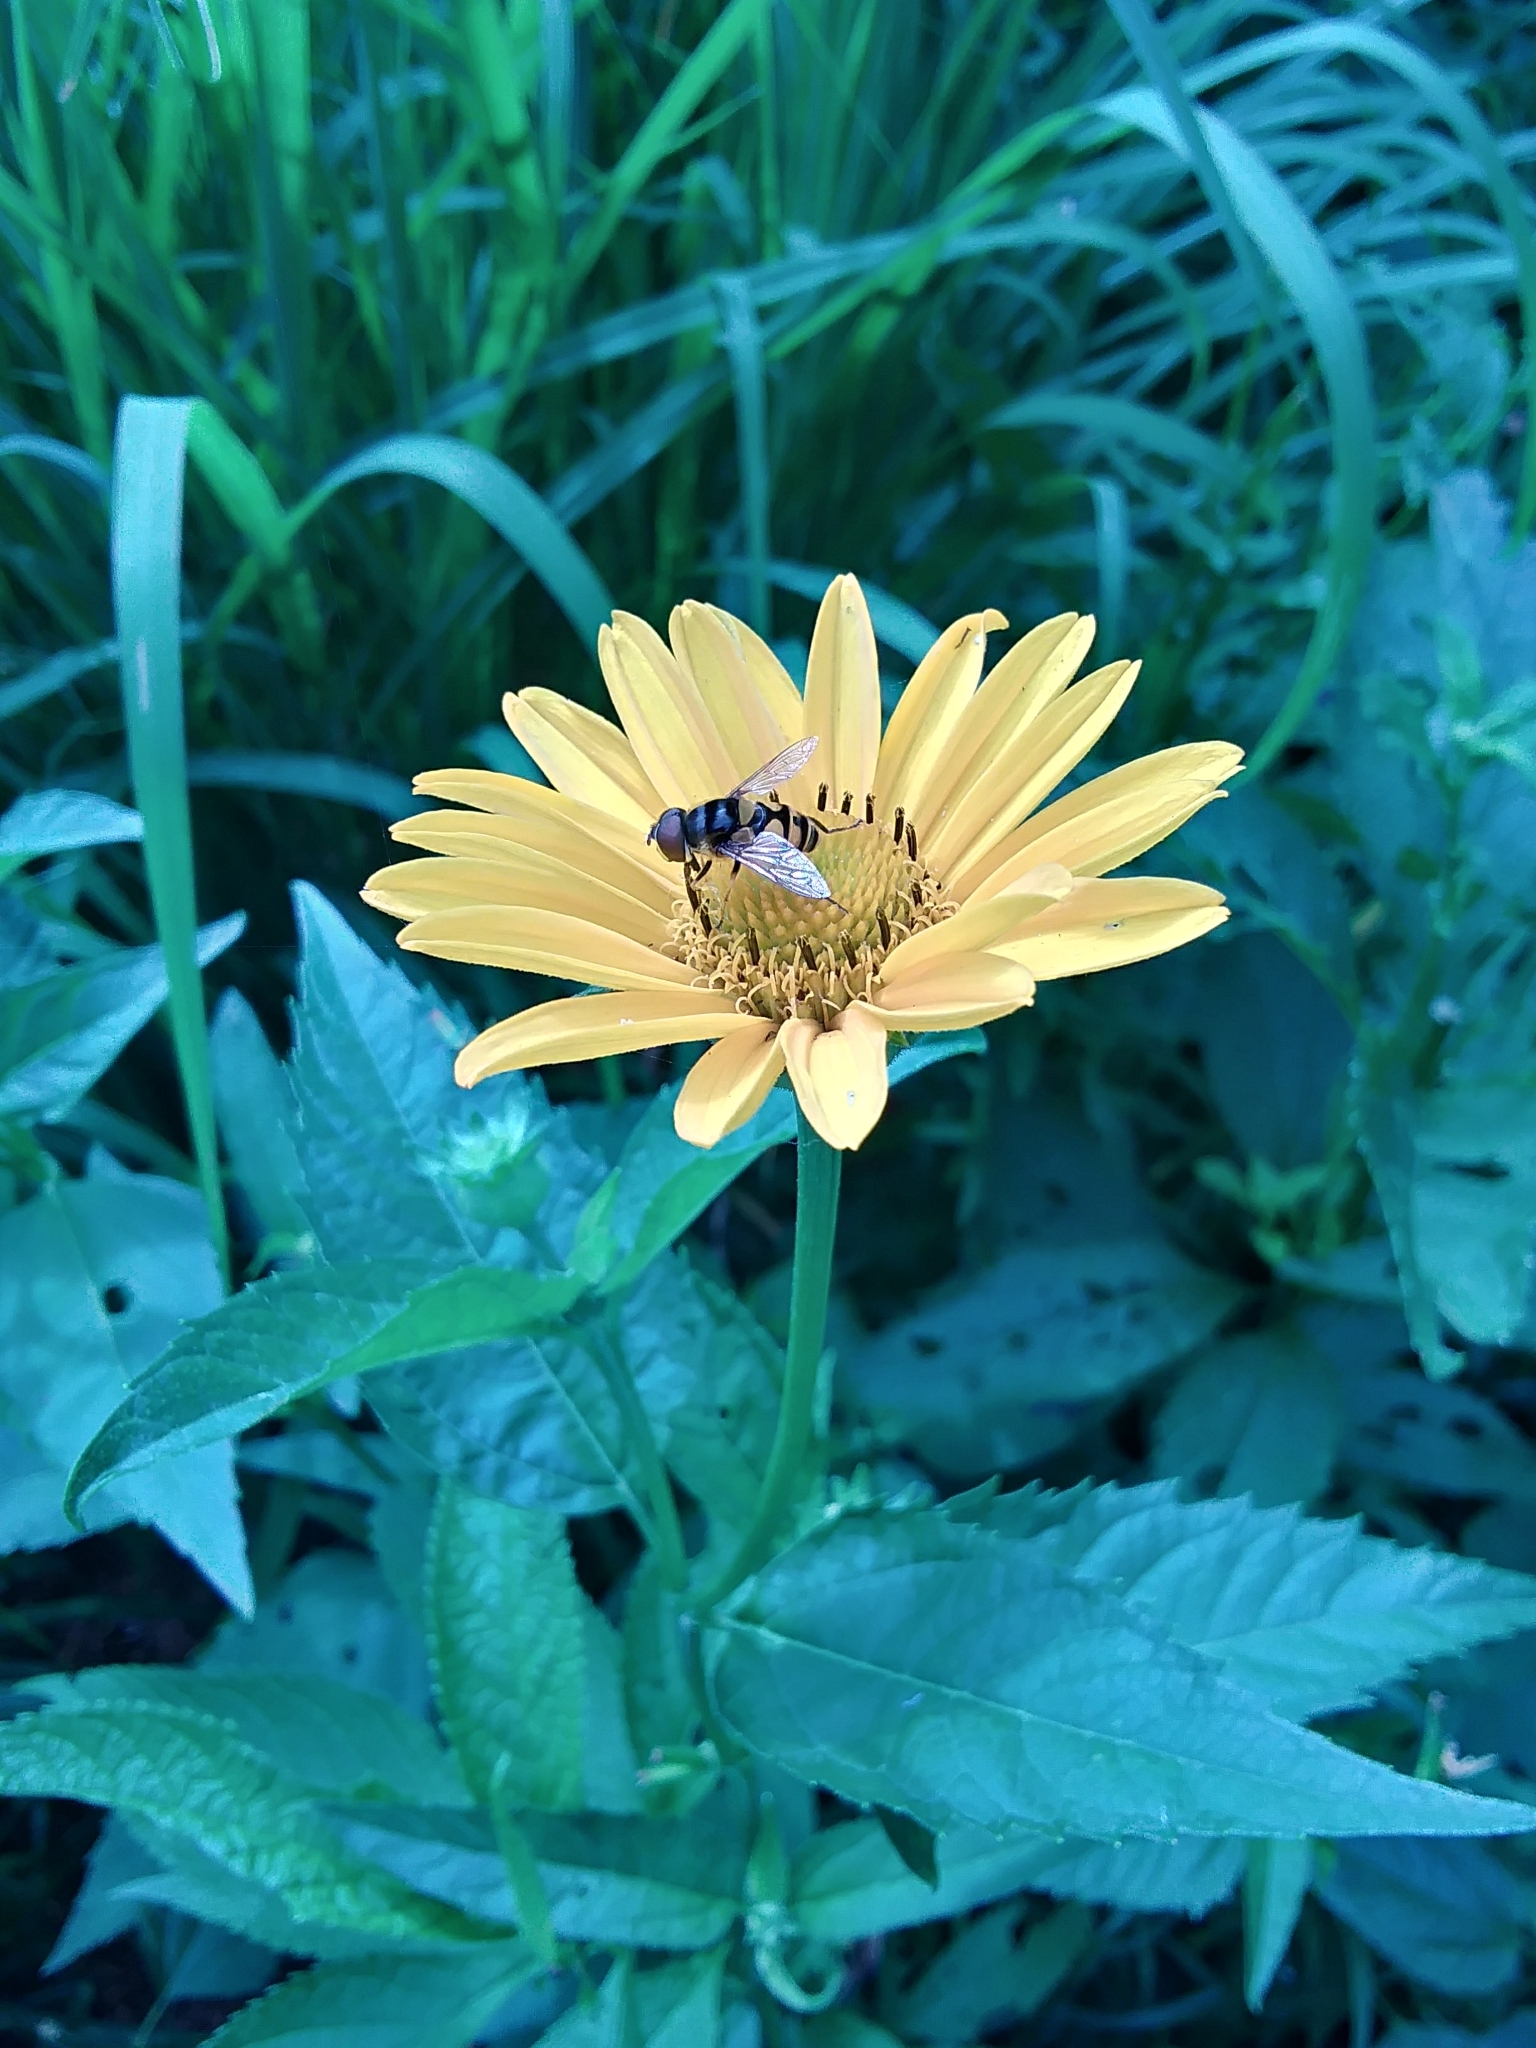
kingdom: Animalia
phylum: Arthropoda
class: Insecta
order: Diptera
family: Syrphidae
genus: Eristalis
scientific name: Eristalis transversa
